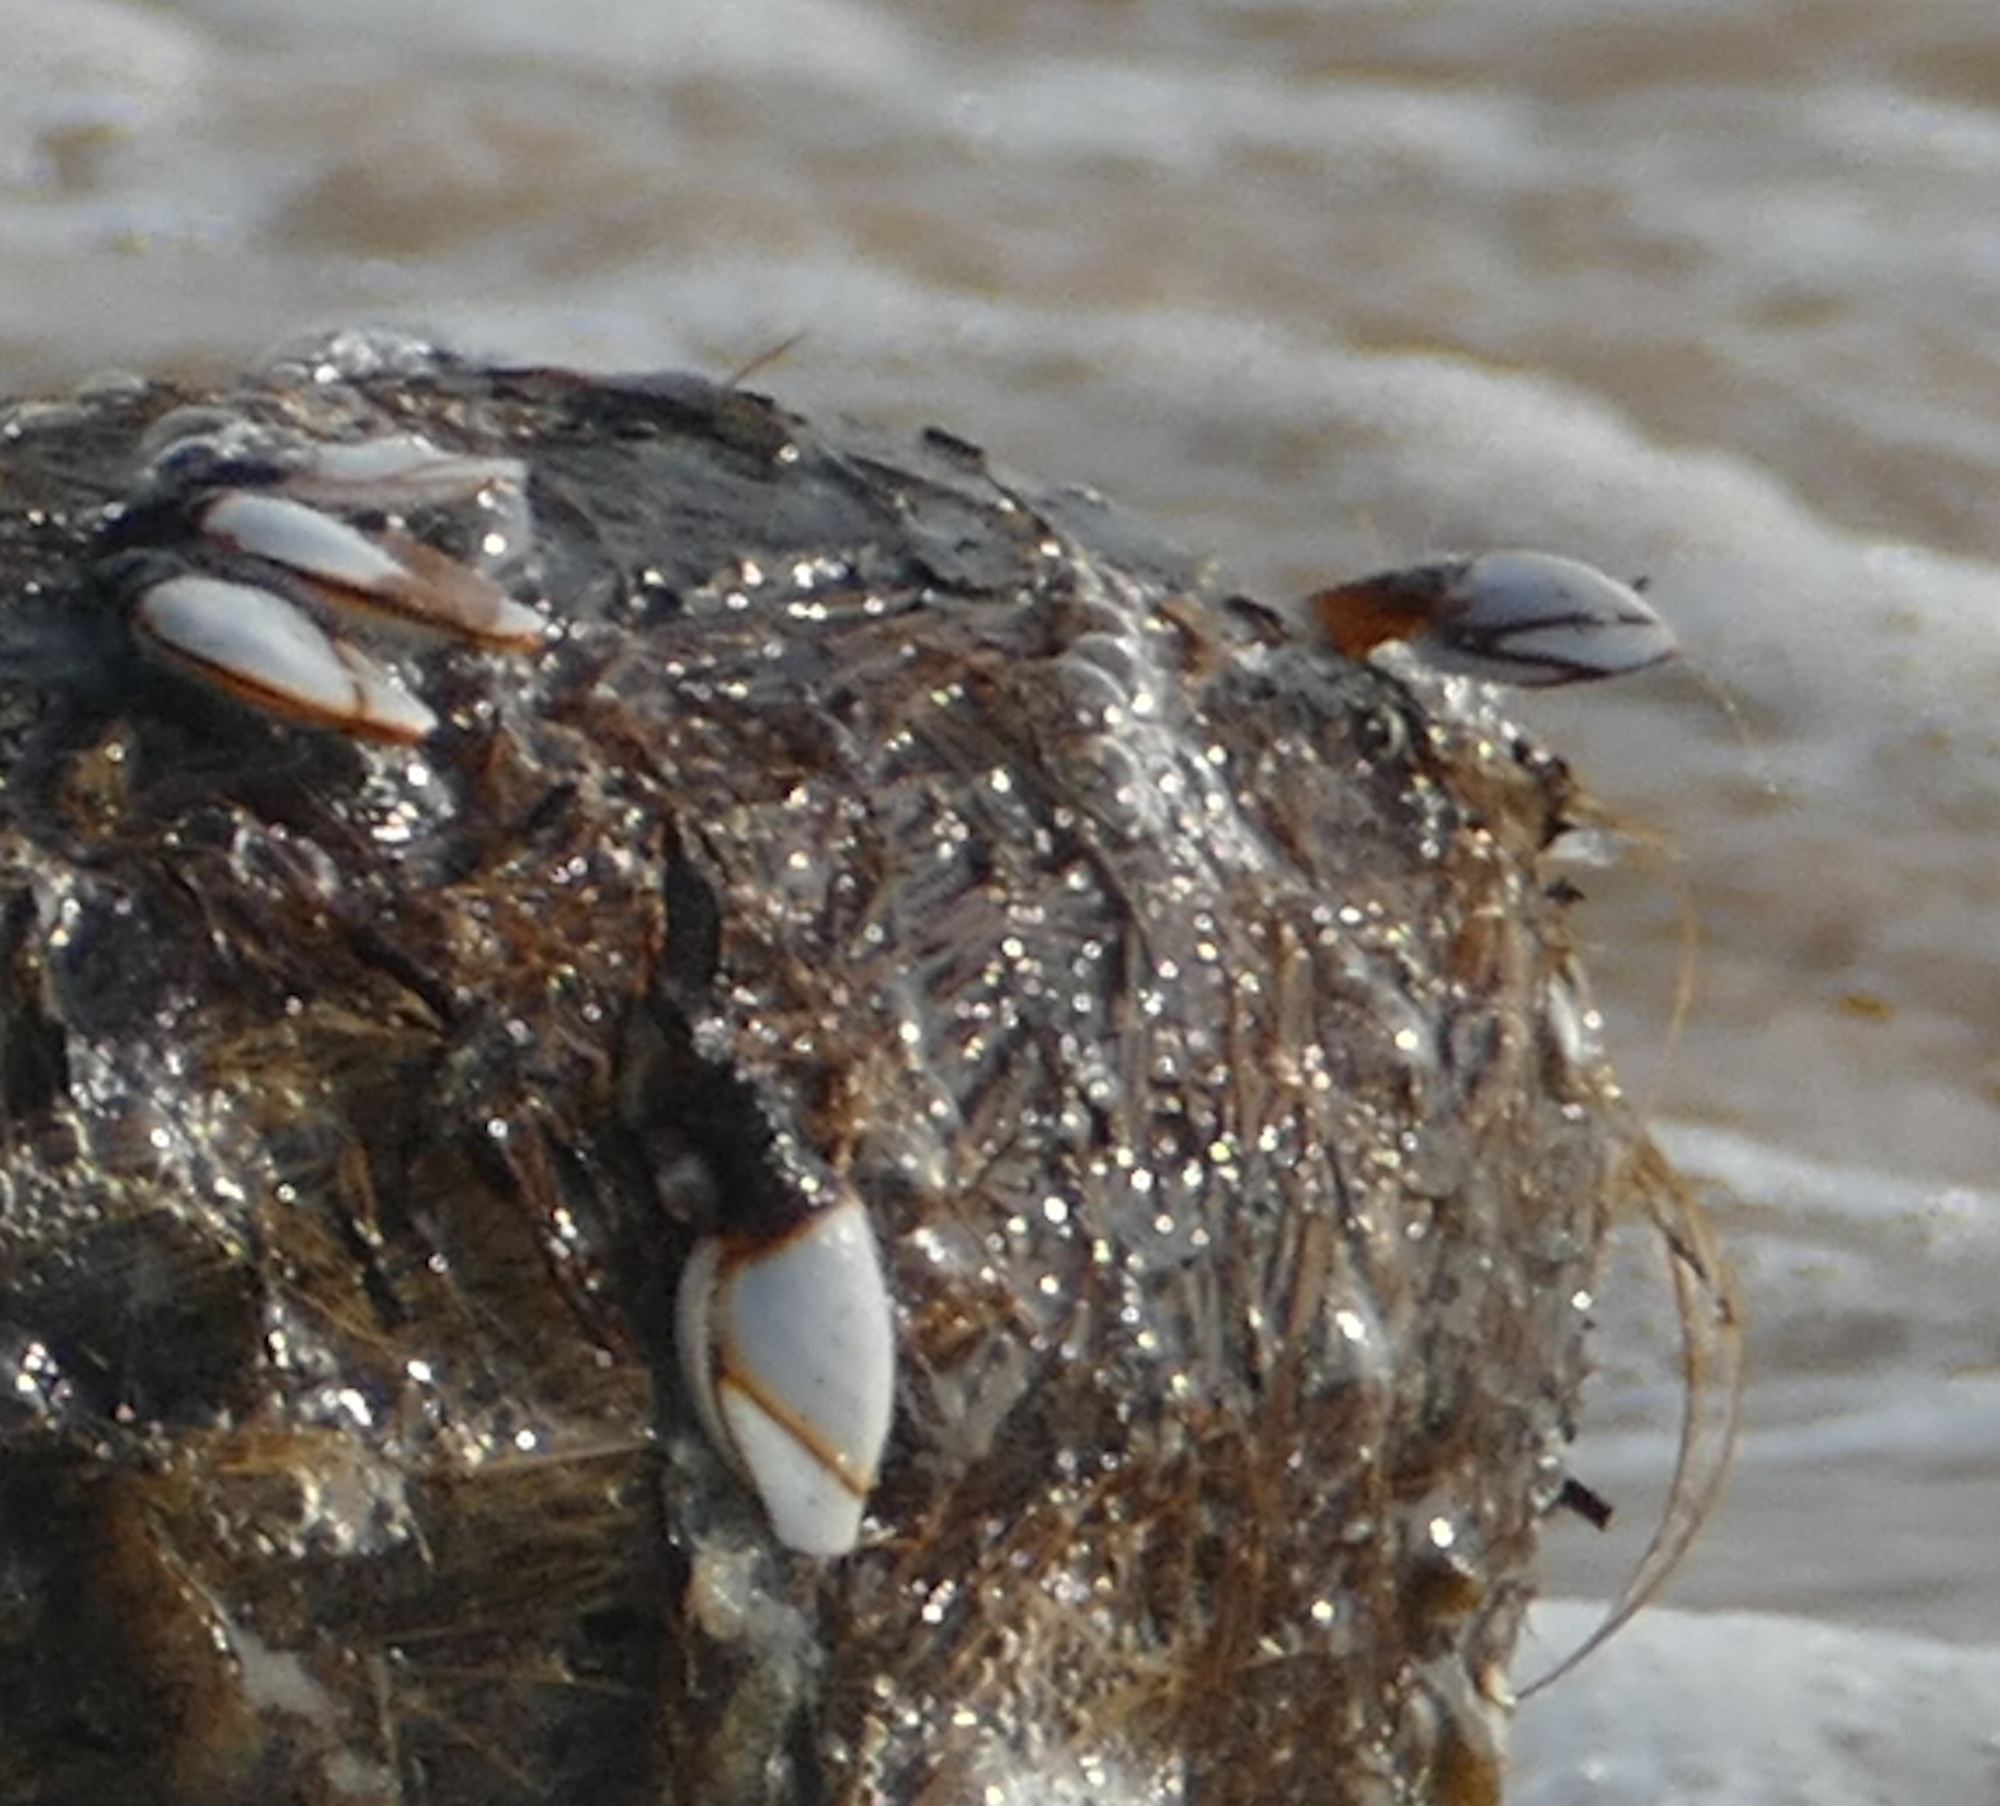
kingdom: Animalia
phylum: Arthropoda
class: Maxillopoda
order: Pedunculata
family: Lepadidae
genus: Lepas
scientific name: Lepas indica
